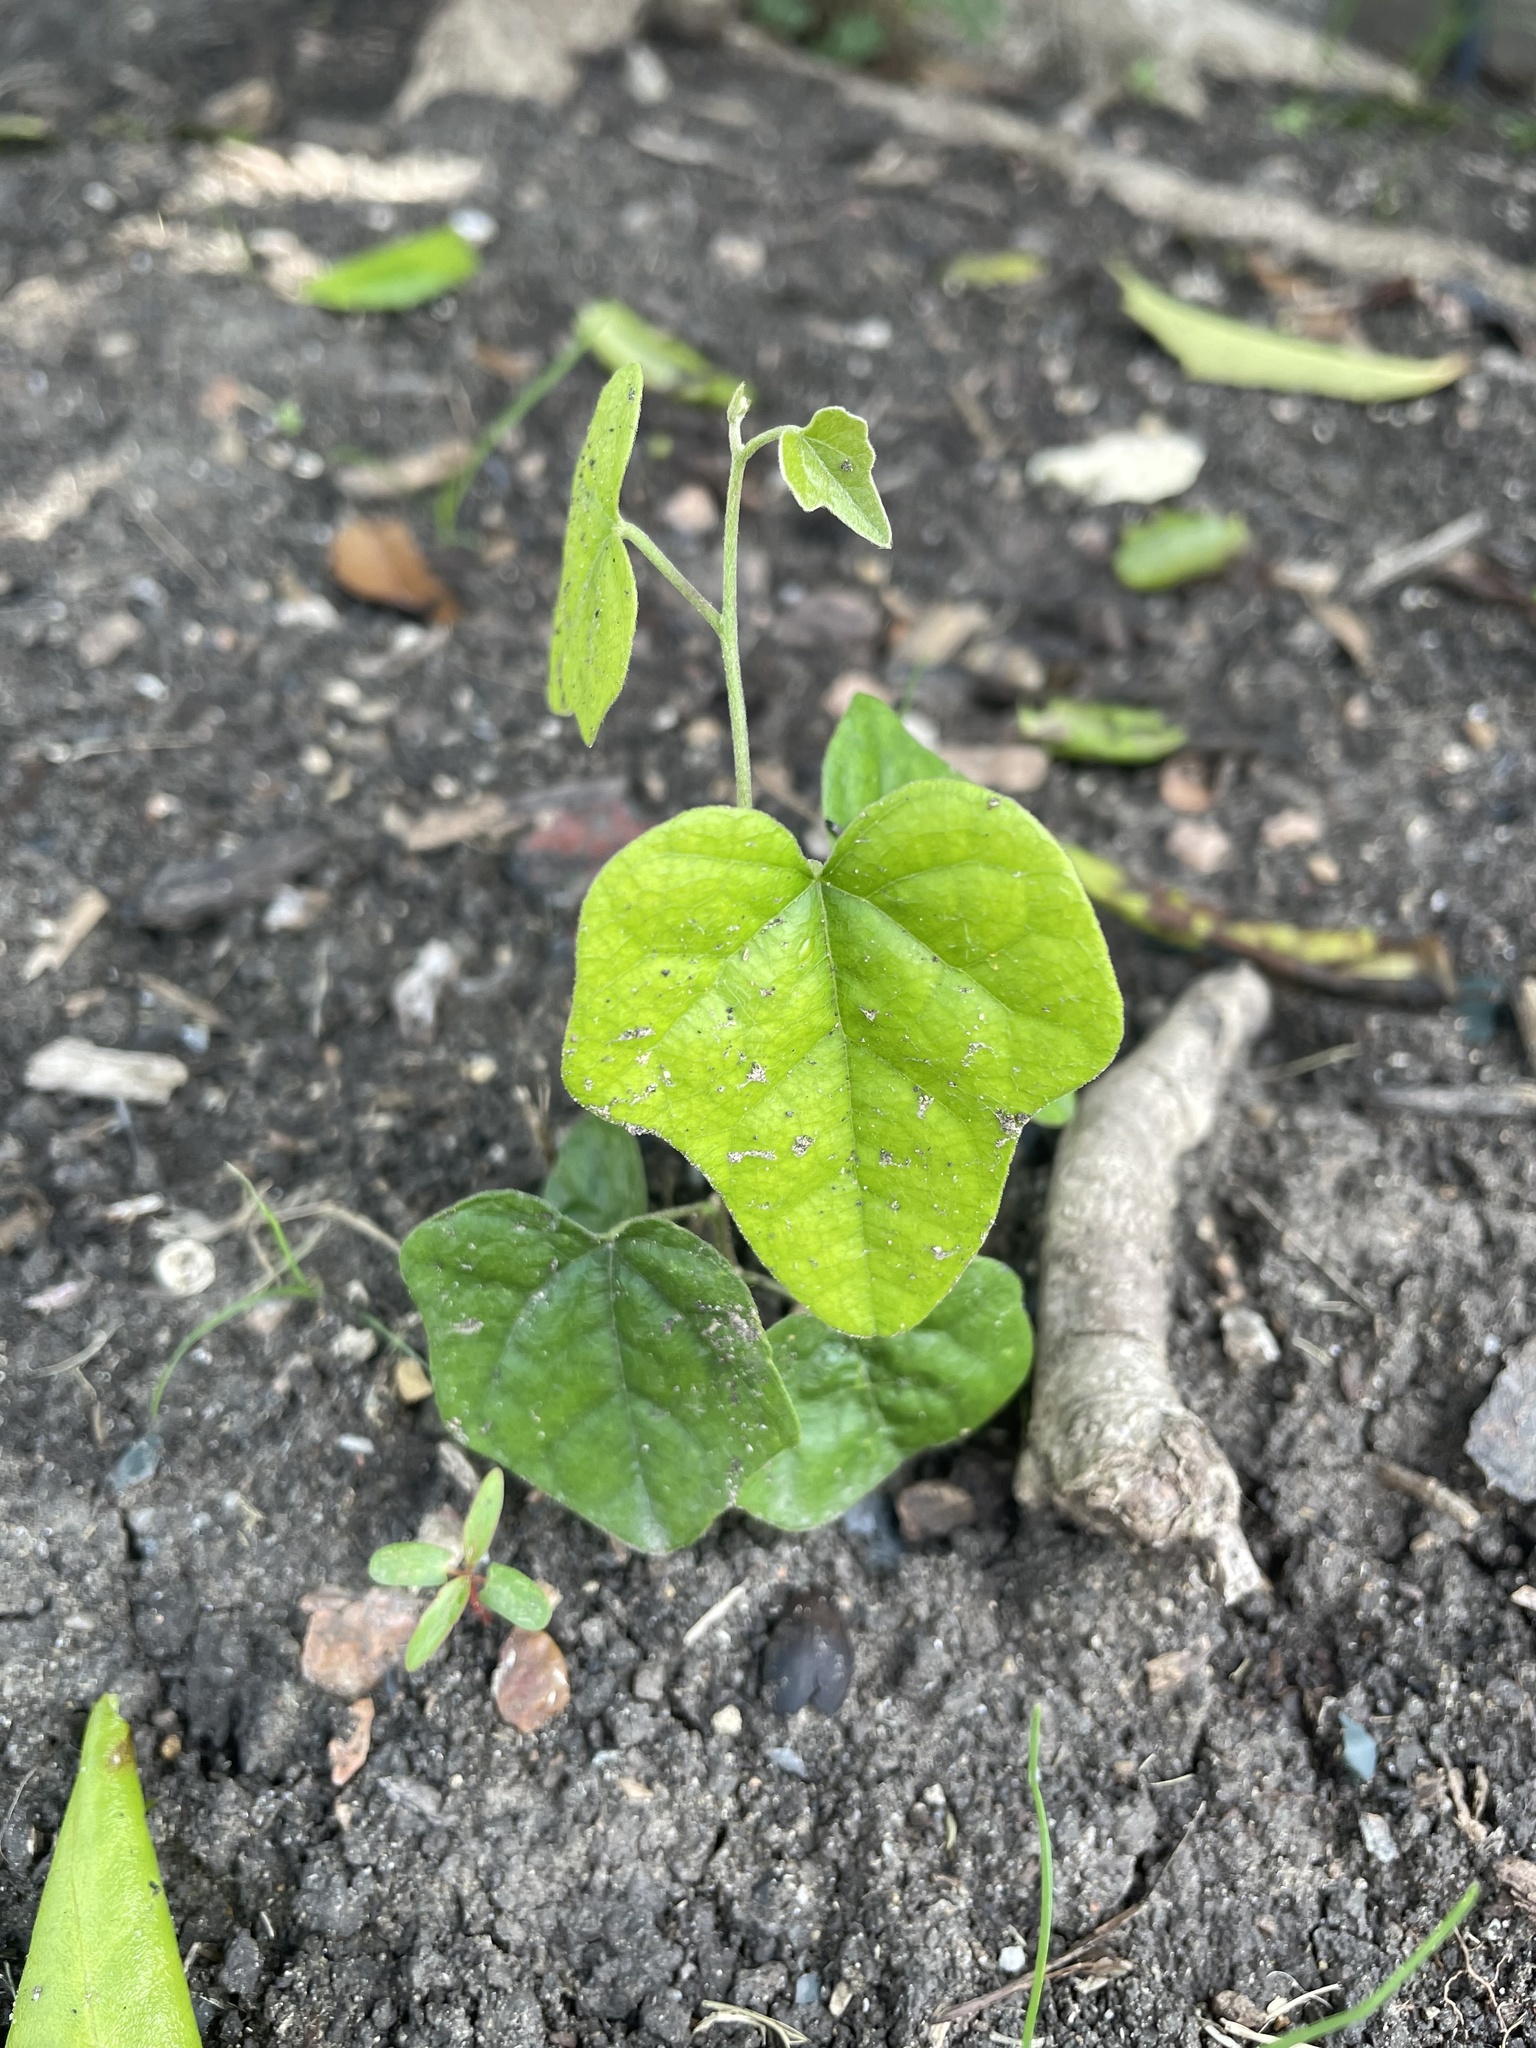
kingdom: Plantae
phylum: Tracheophyta
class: Magnoliopsida
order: Ranunculales
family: Menispermaceae
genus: Cocculus
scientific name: Cocculus carolinus
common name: Carolina moonseed
